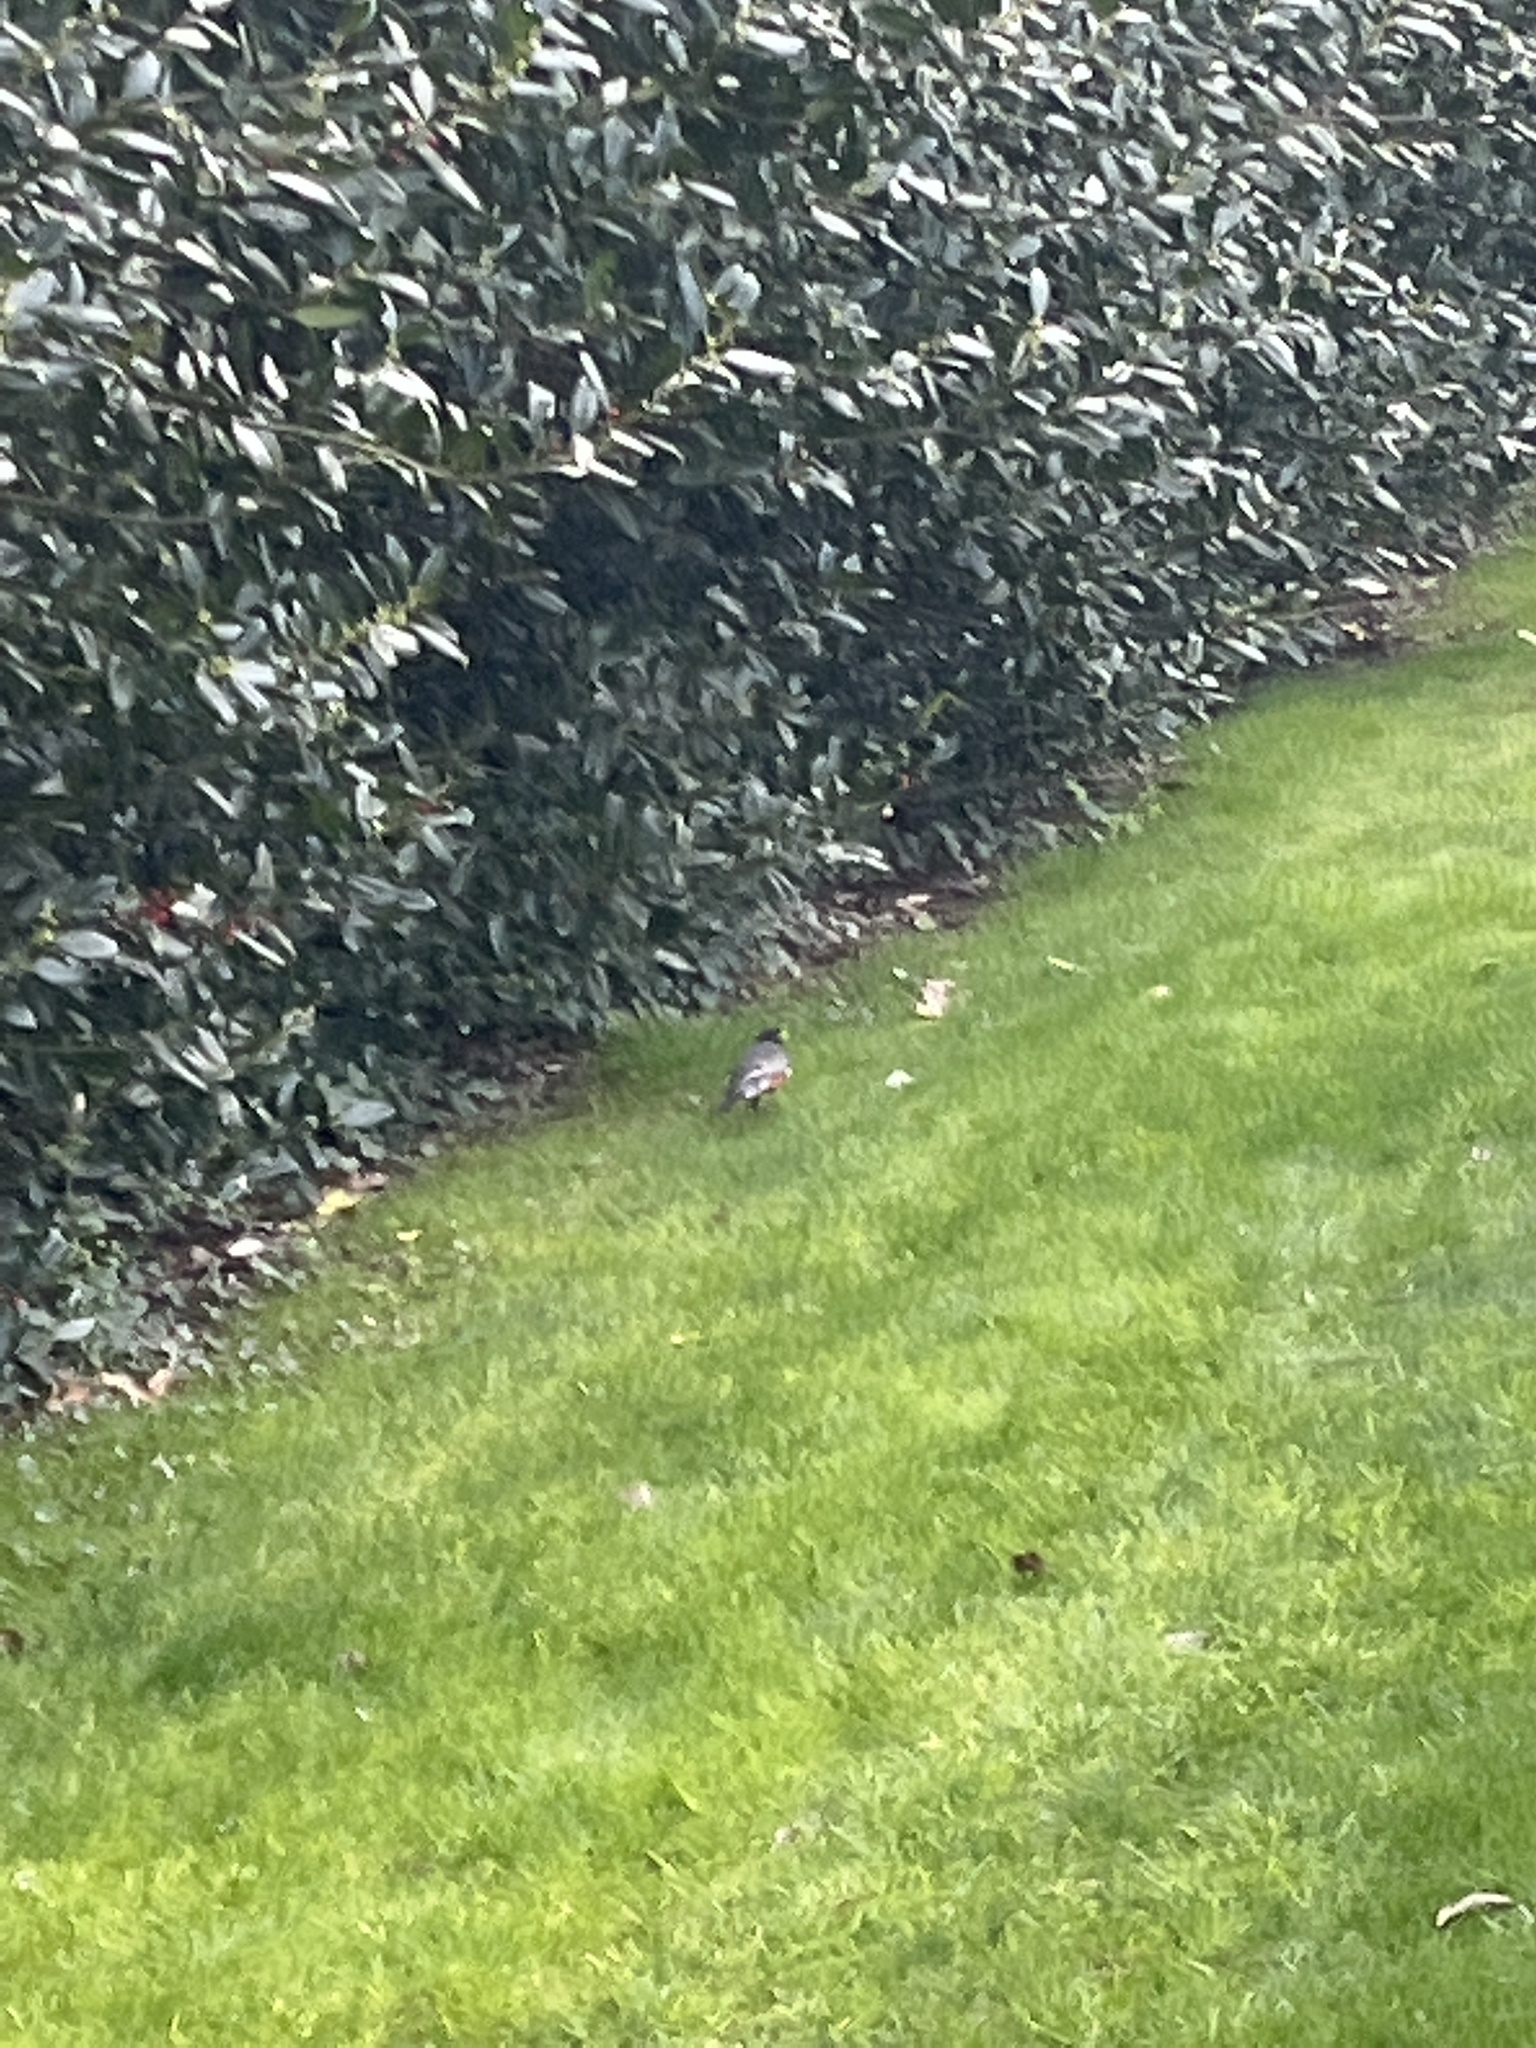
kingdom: Animalia
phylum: Chordata
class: Aves
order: Passeriformes
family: Turdidae
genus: Turdus
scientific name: Turdus migratorius
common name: American robin
